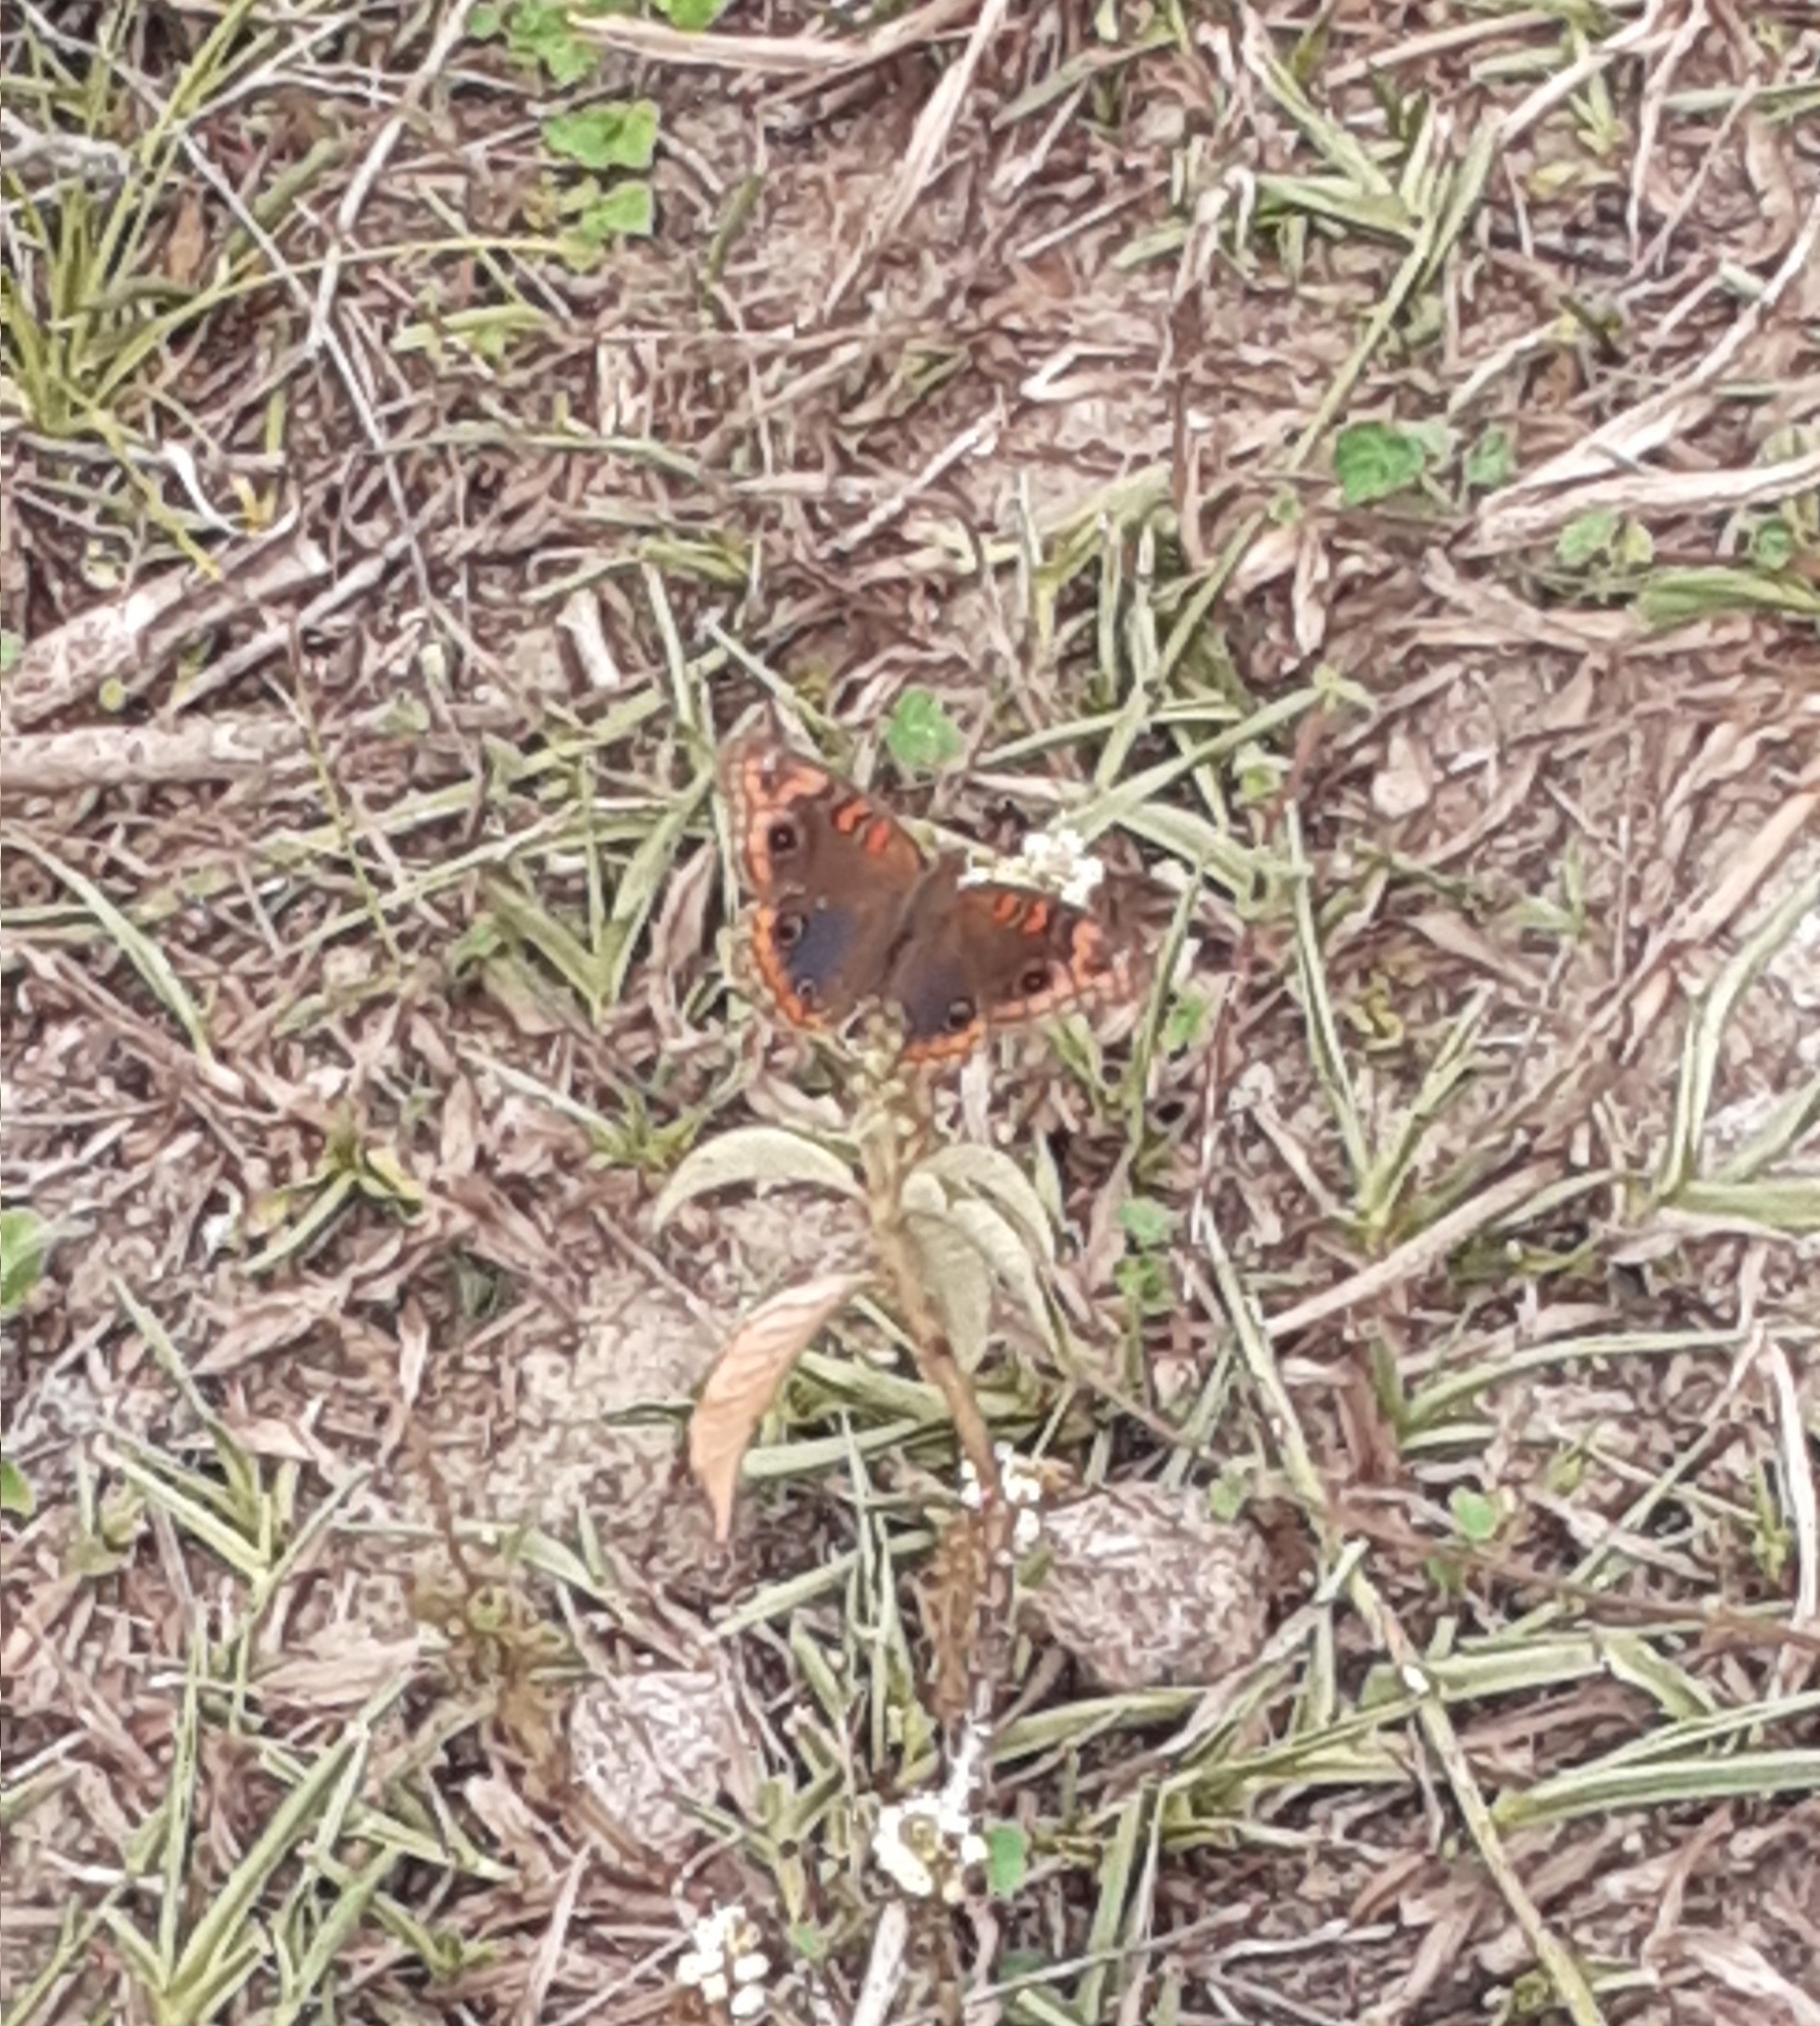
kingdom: Animalia
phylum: Arthropoda
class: Insecta
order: Lepidoptera
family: Nymphalidae
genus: Junonia
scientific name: Junonia lavinia
